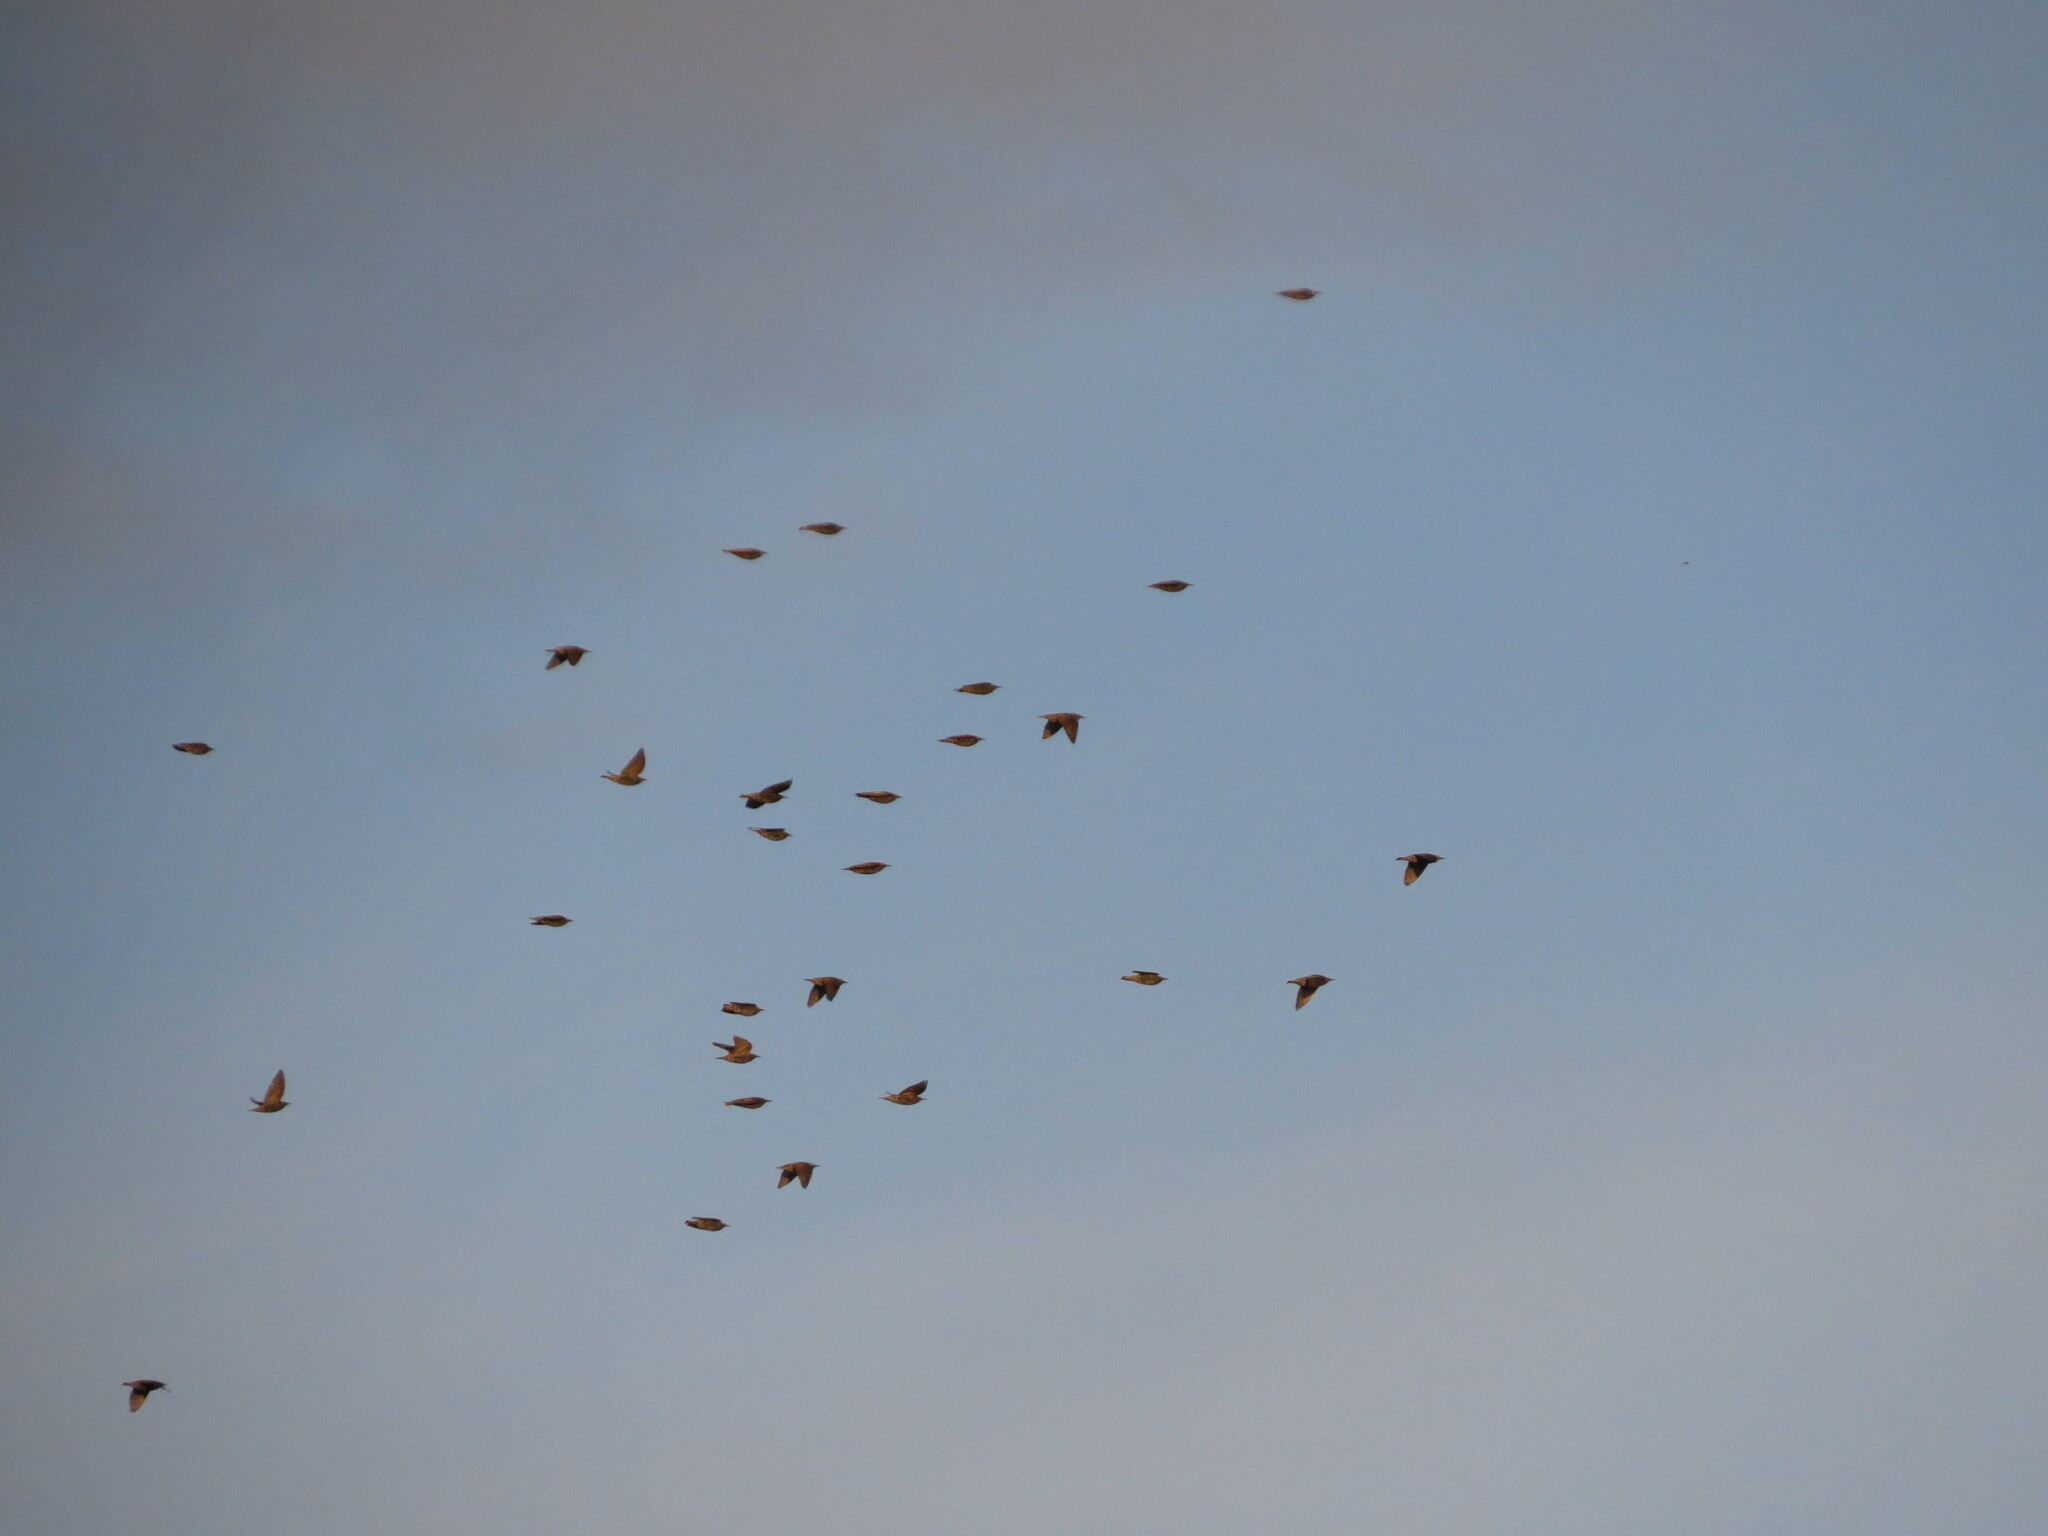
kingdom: Animalia
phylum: Chordata
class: Aves
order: Passeriformes
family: Sturnidae
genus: Sturnus
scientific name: Sturnus vulgaris
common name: Common starling
